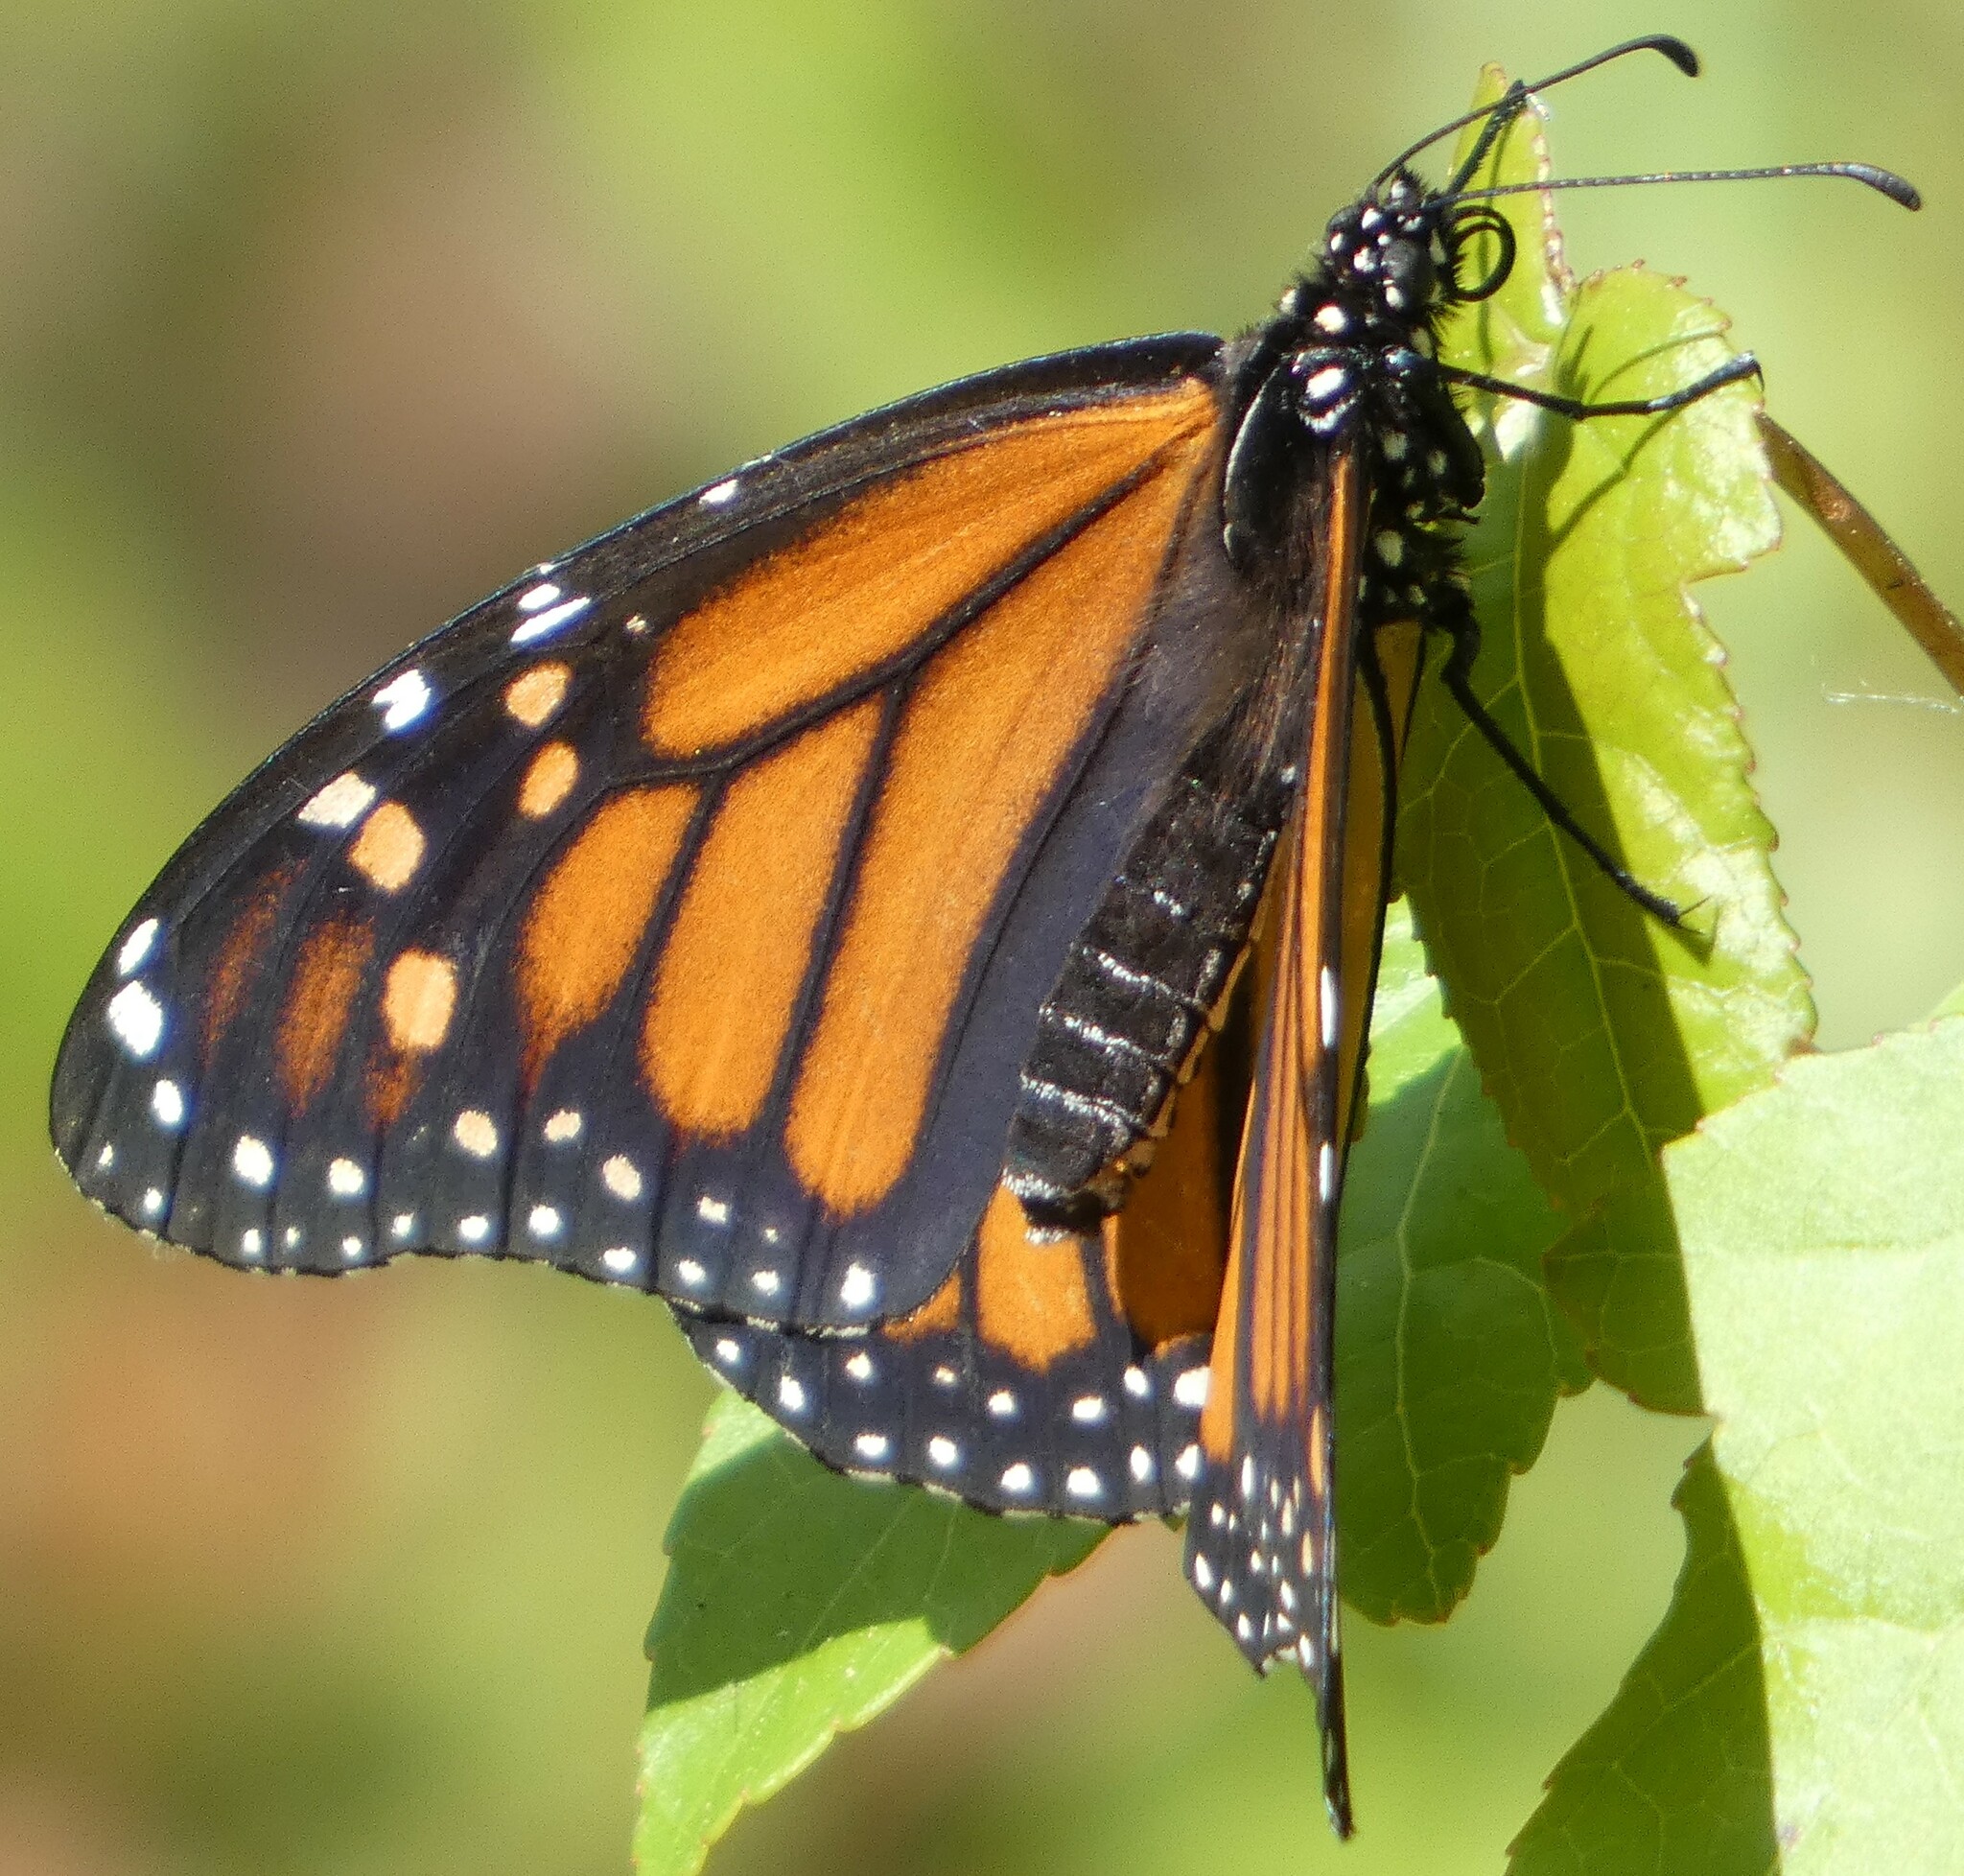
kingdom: Animalia
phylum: Arthropoda
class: Insecta
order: Lepidoptera
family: Nymphalidae
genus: Danaus
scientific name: Danaus plexippus
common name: Monarch
